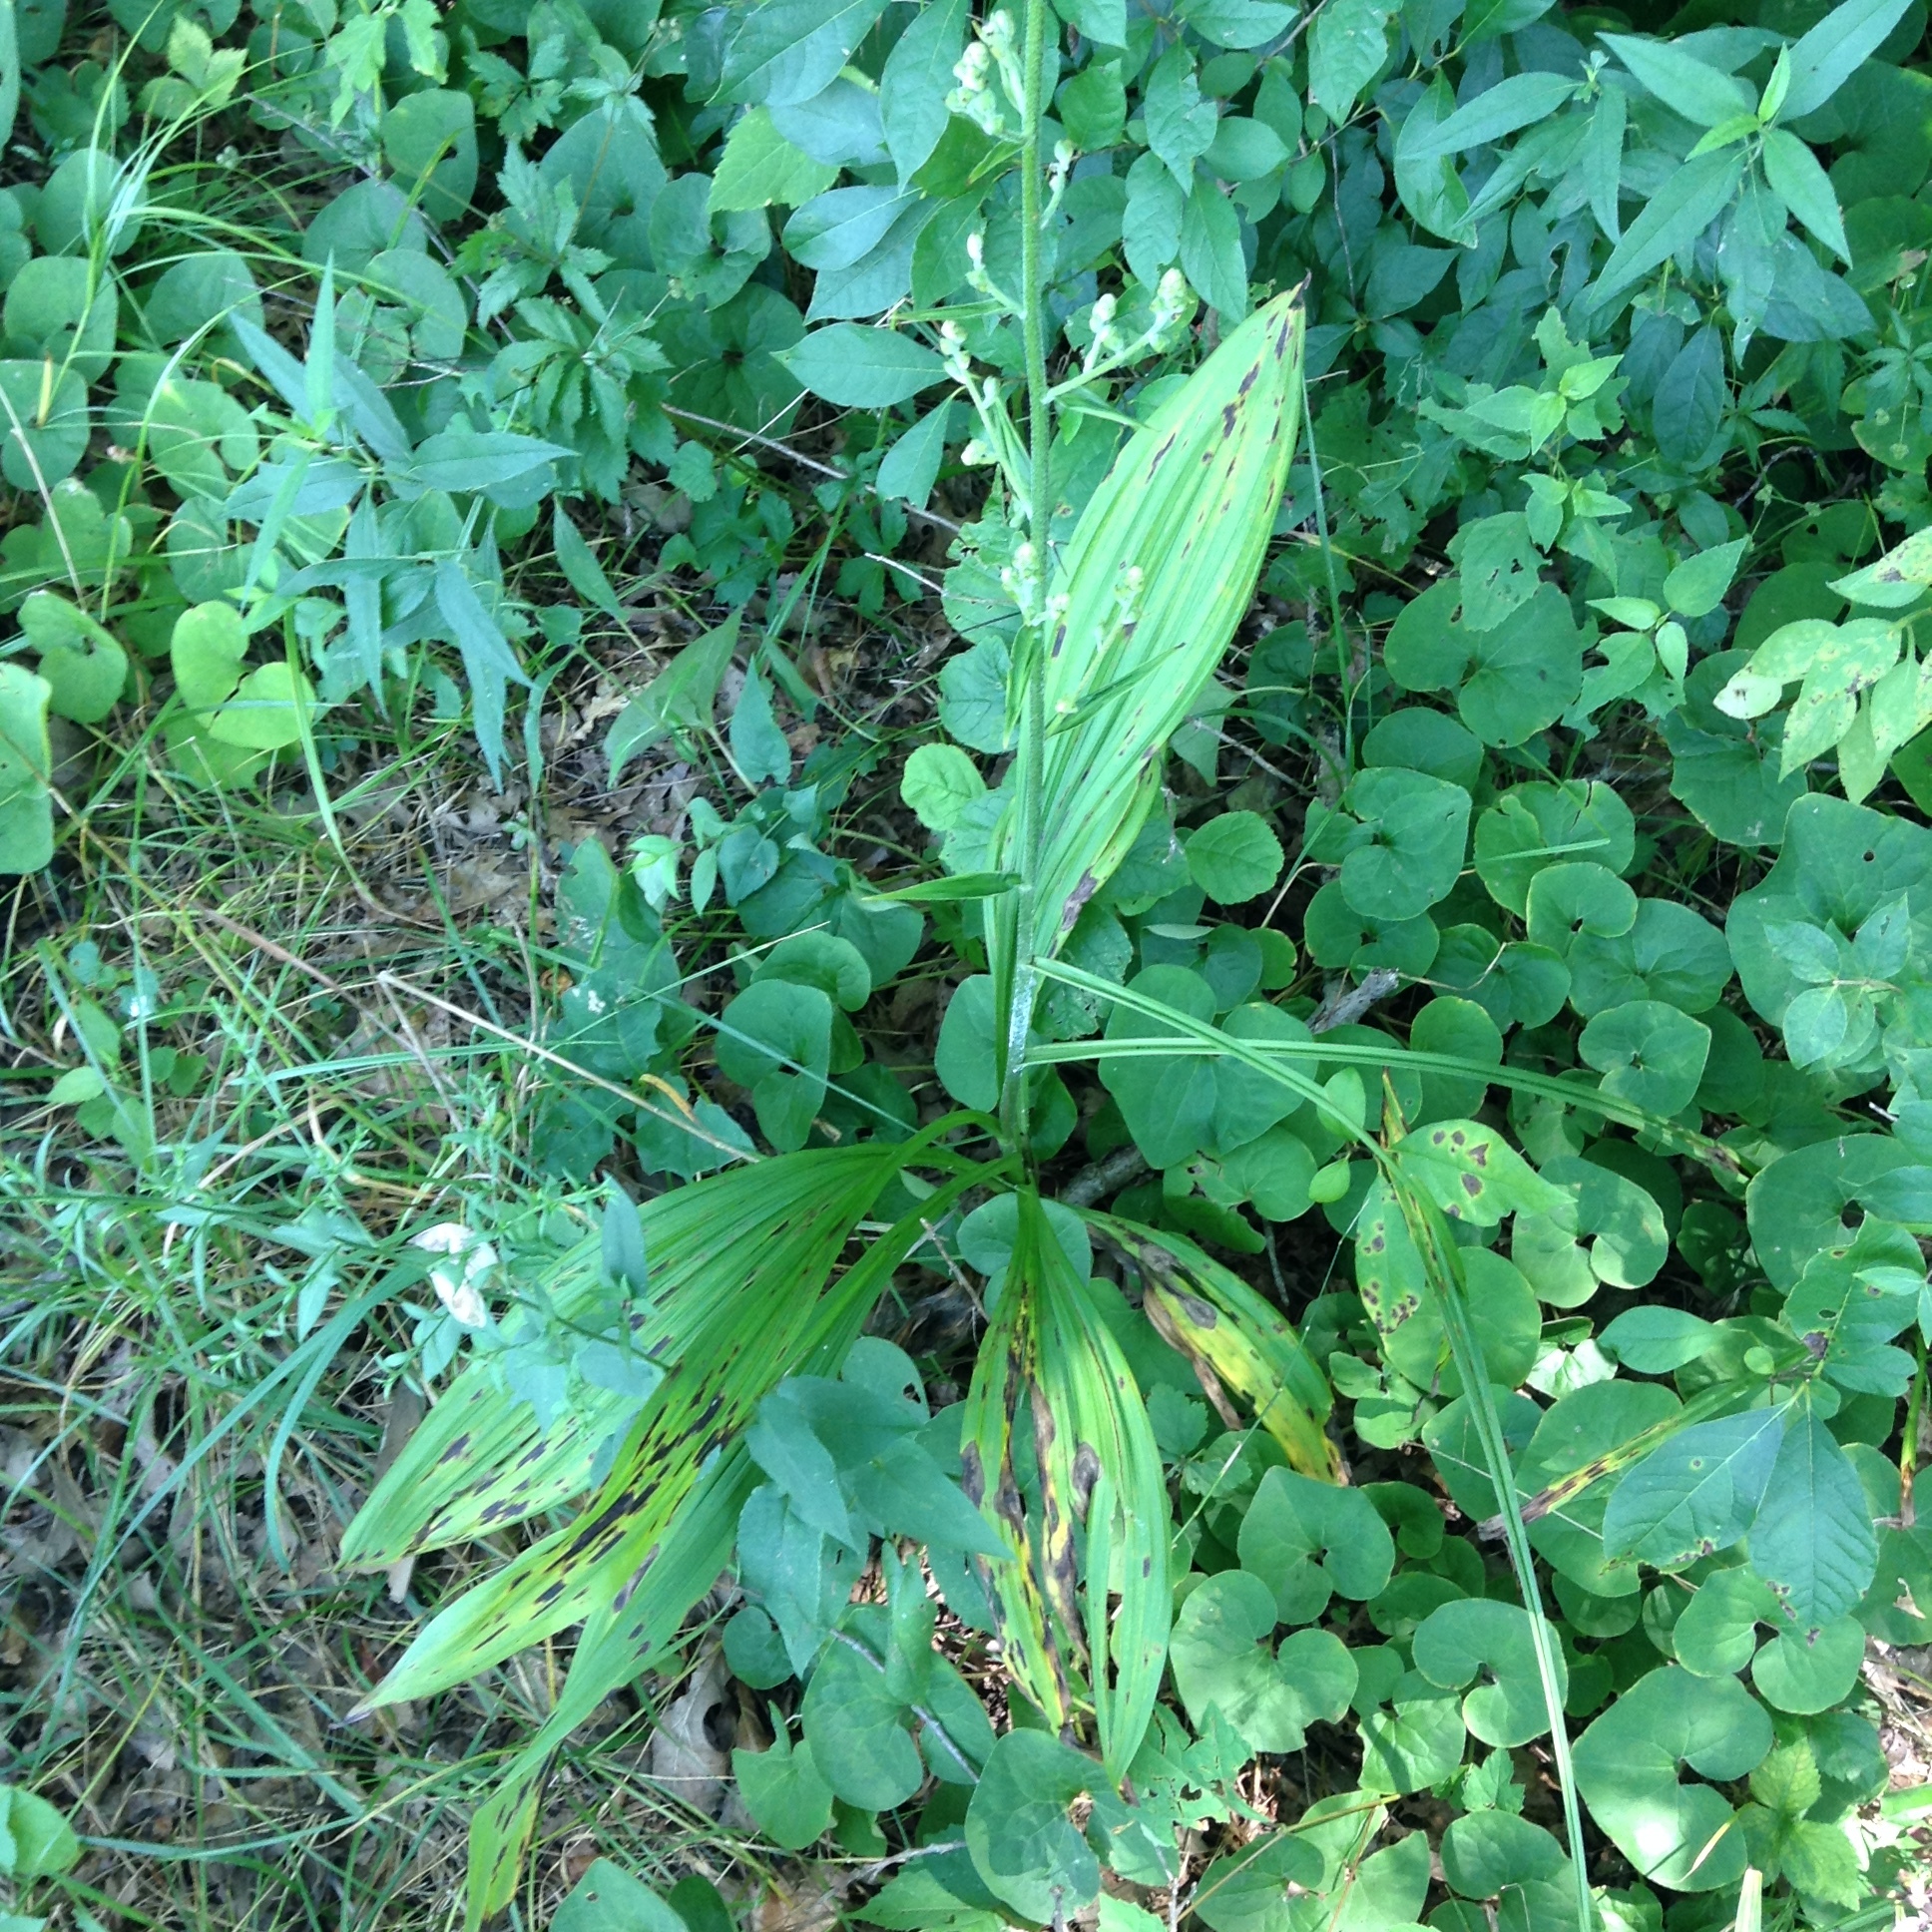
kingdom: Plantae
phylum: Tracheophyta
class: Liliopsida
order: Liliales
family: Melanthiaceae
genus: Veratrum
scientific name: Veratrum woodii
